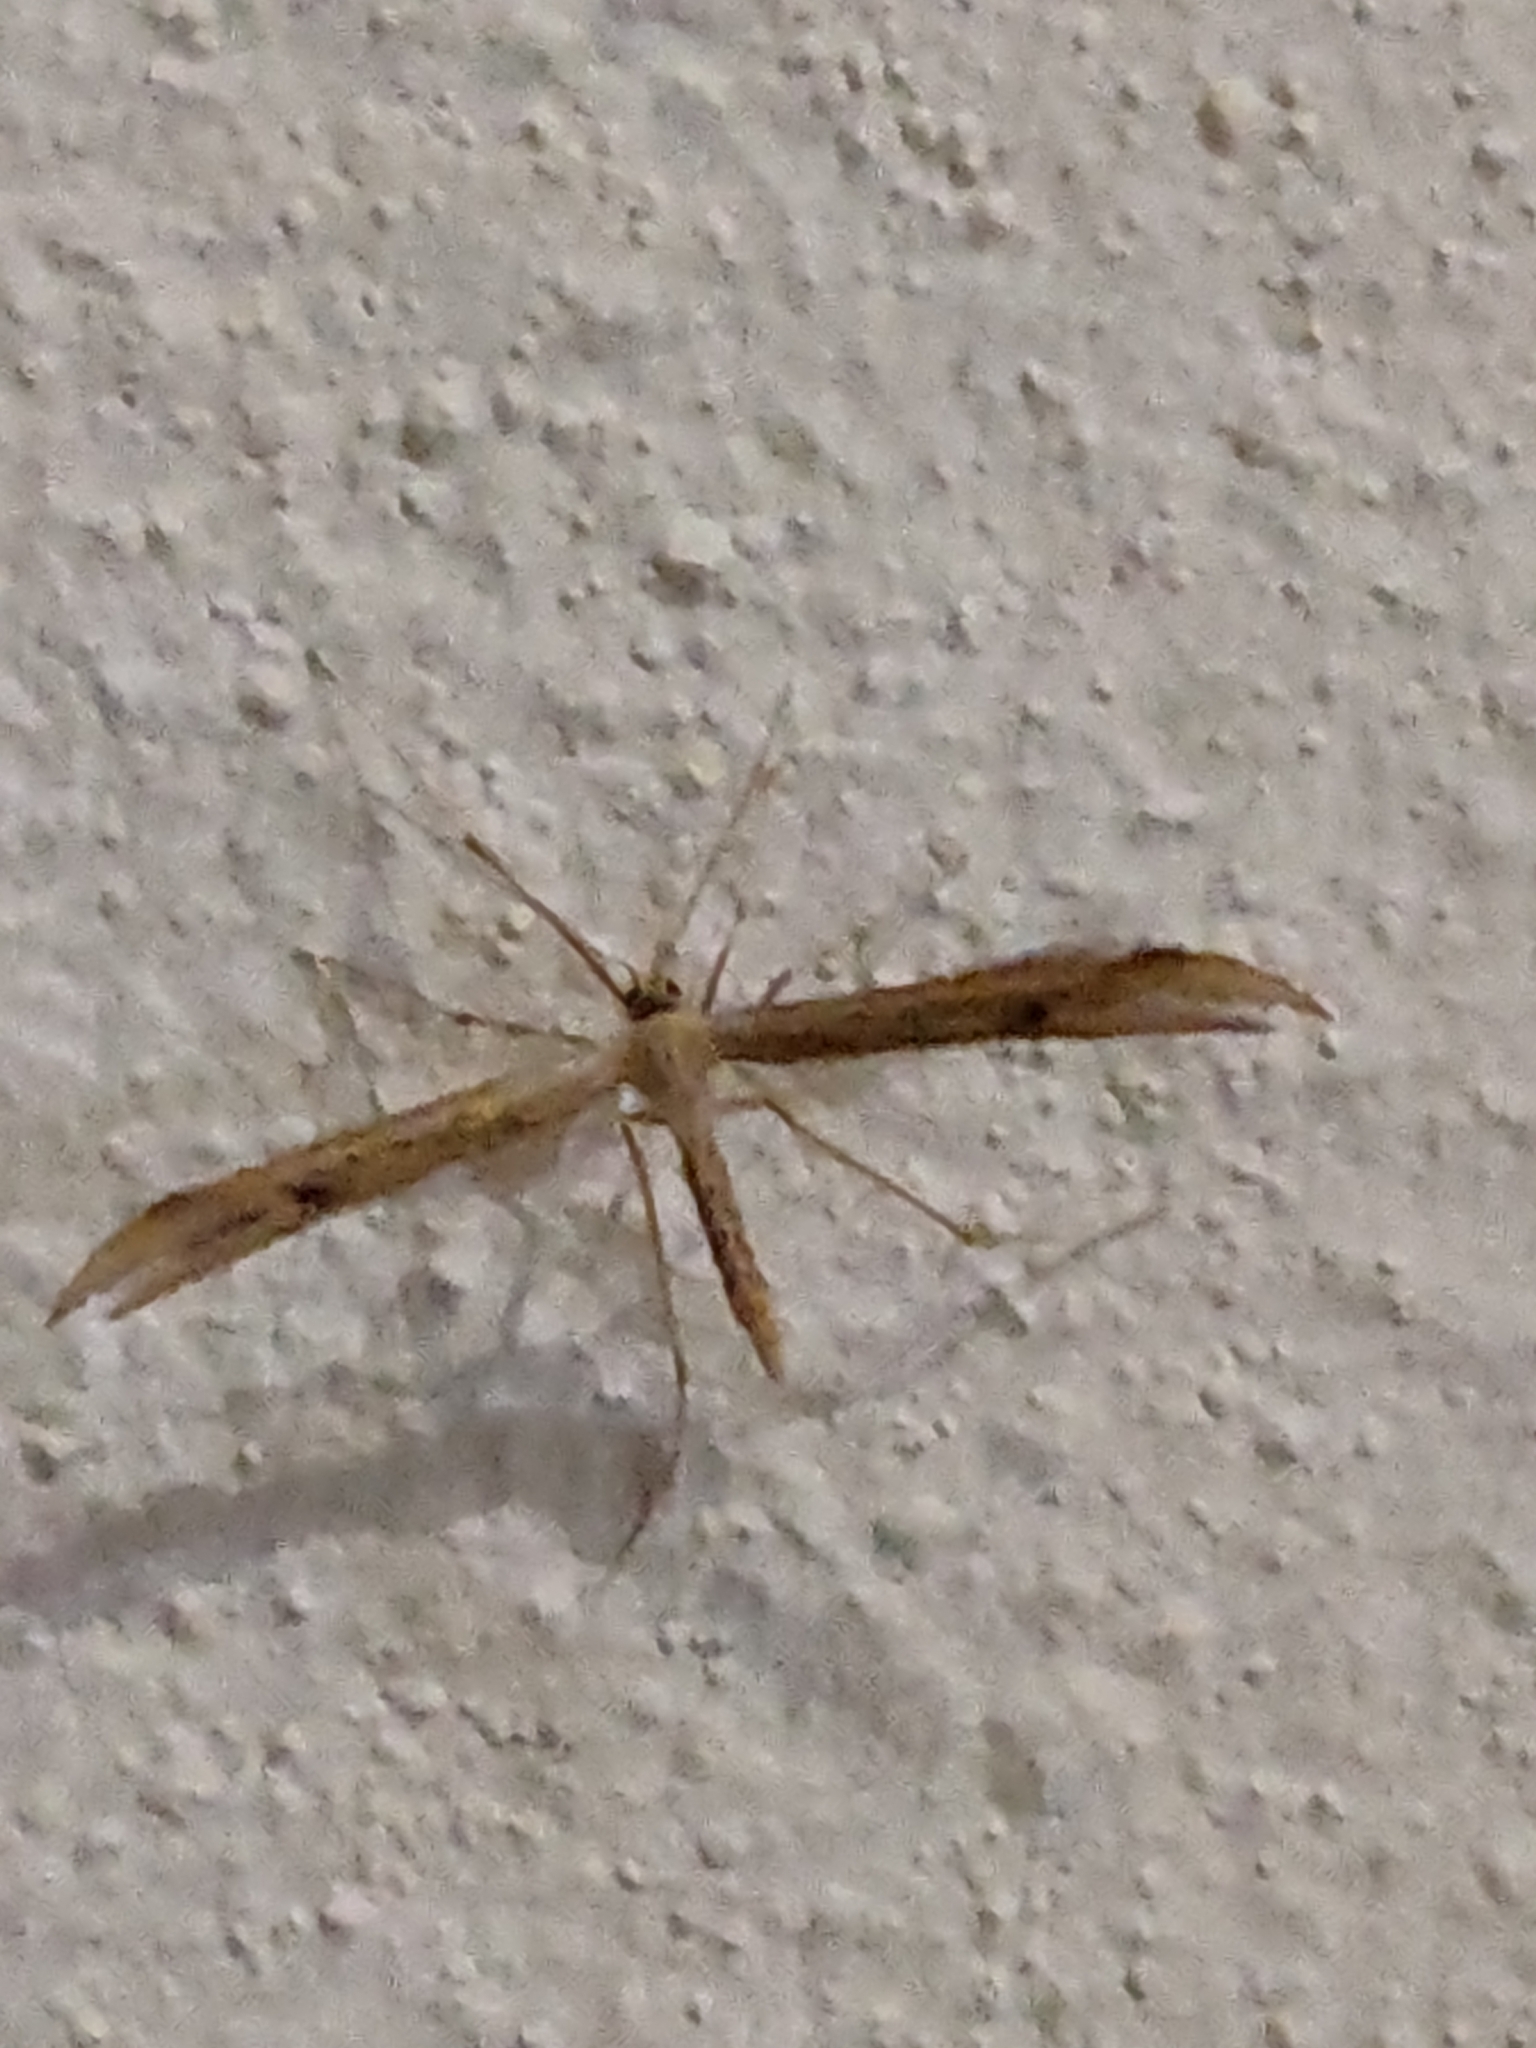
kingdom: Animalia
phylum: Arthropoda
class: Insecta
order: Lepidoptera
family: Pterophoridae
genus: Emmelina
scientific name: Emmelina monodactyla
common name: Common plume
